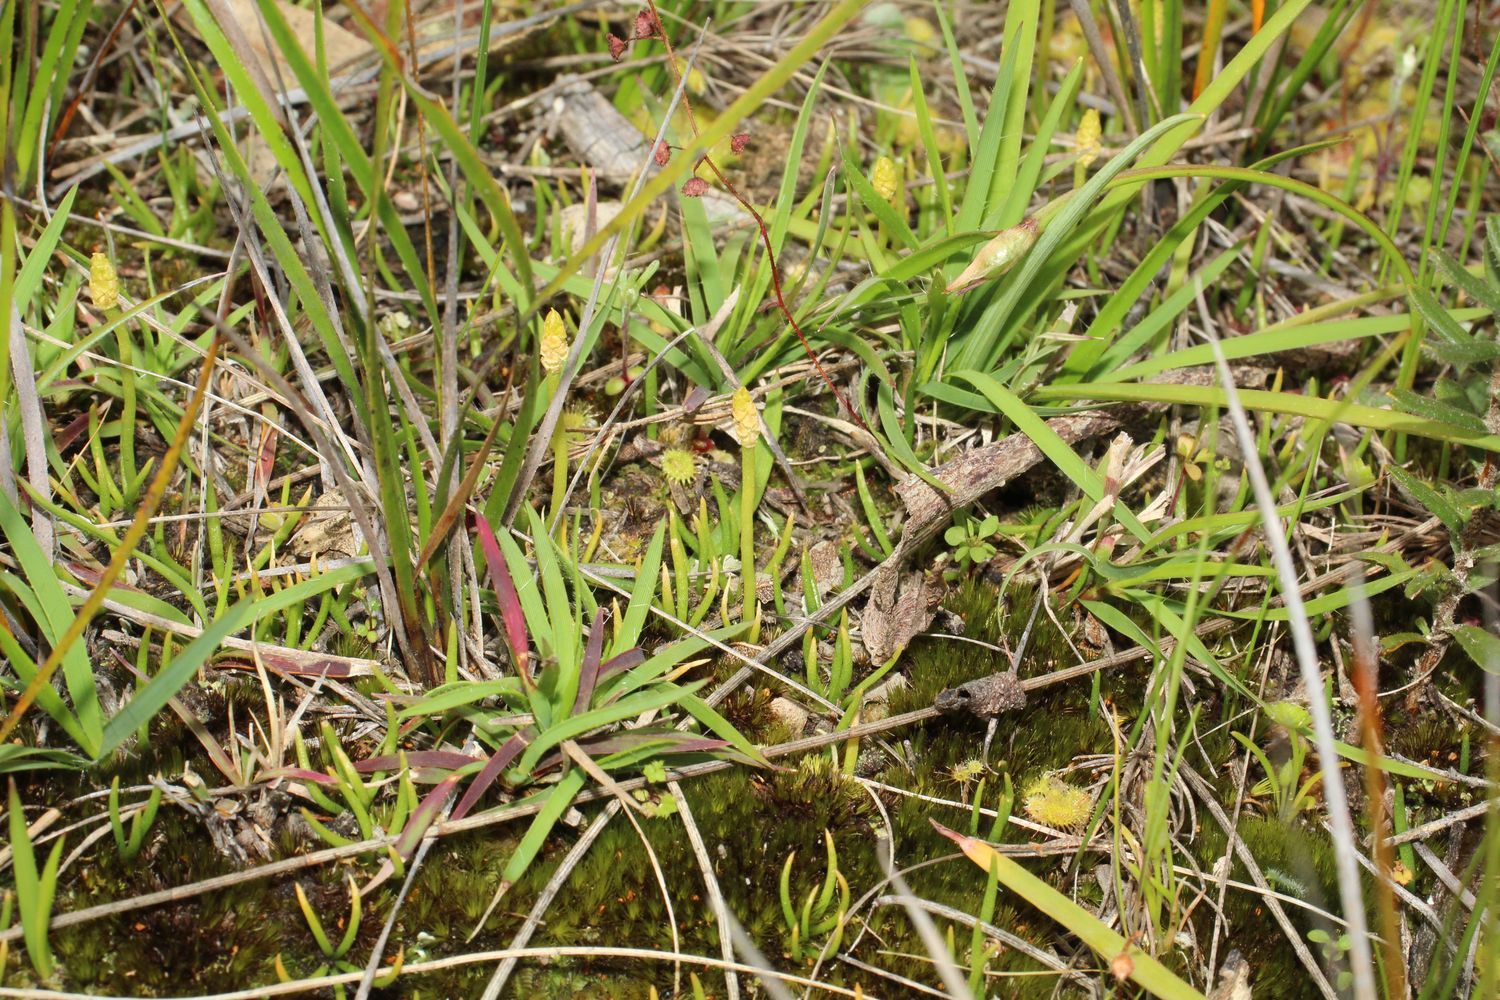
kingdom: Plantae
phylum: Tracheophyta
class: Lycopodiopsida
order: Lycopodiales
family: Lycopodiaceae
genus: Phylloglossum
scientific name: Phylloglossum drummondii
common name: Pigmy-club-moss
